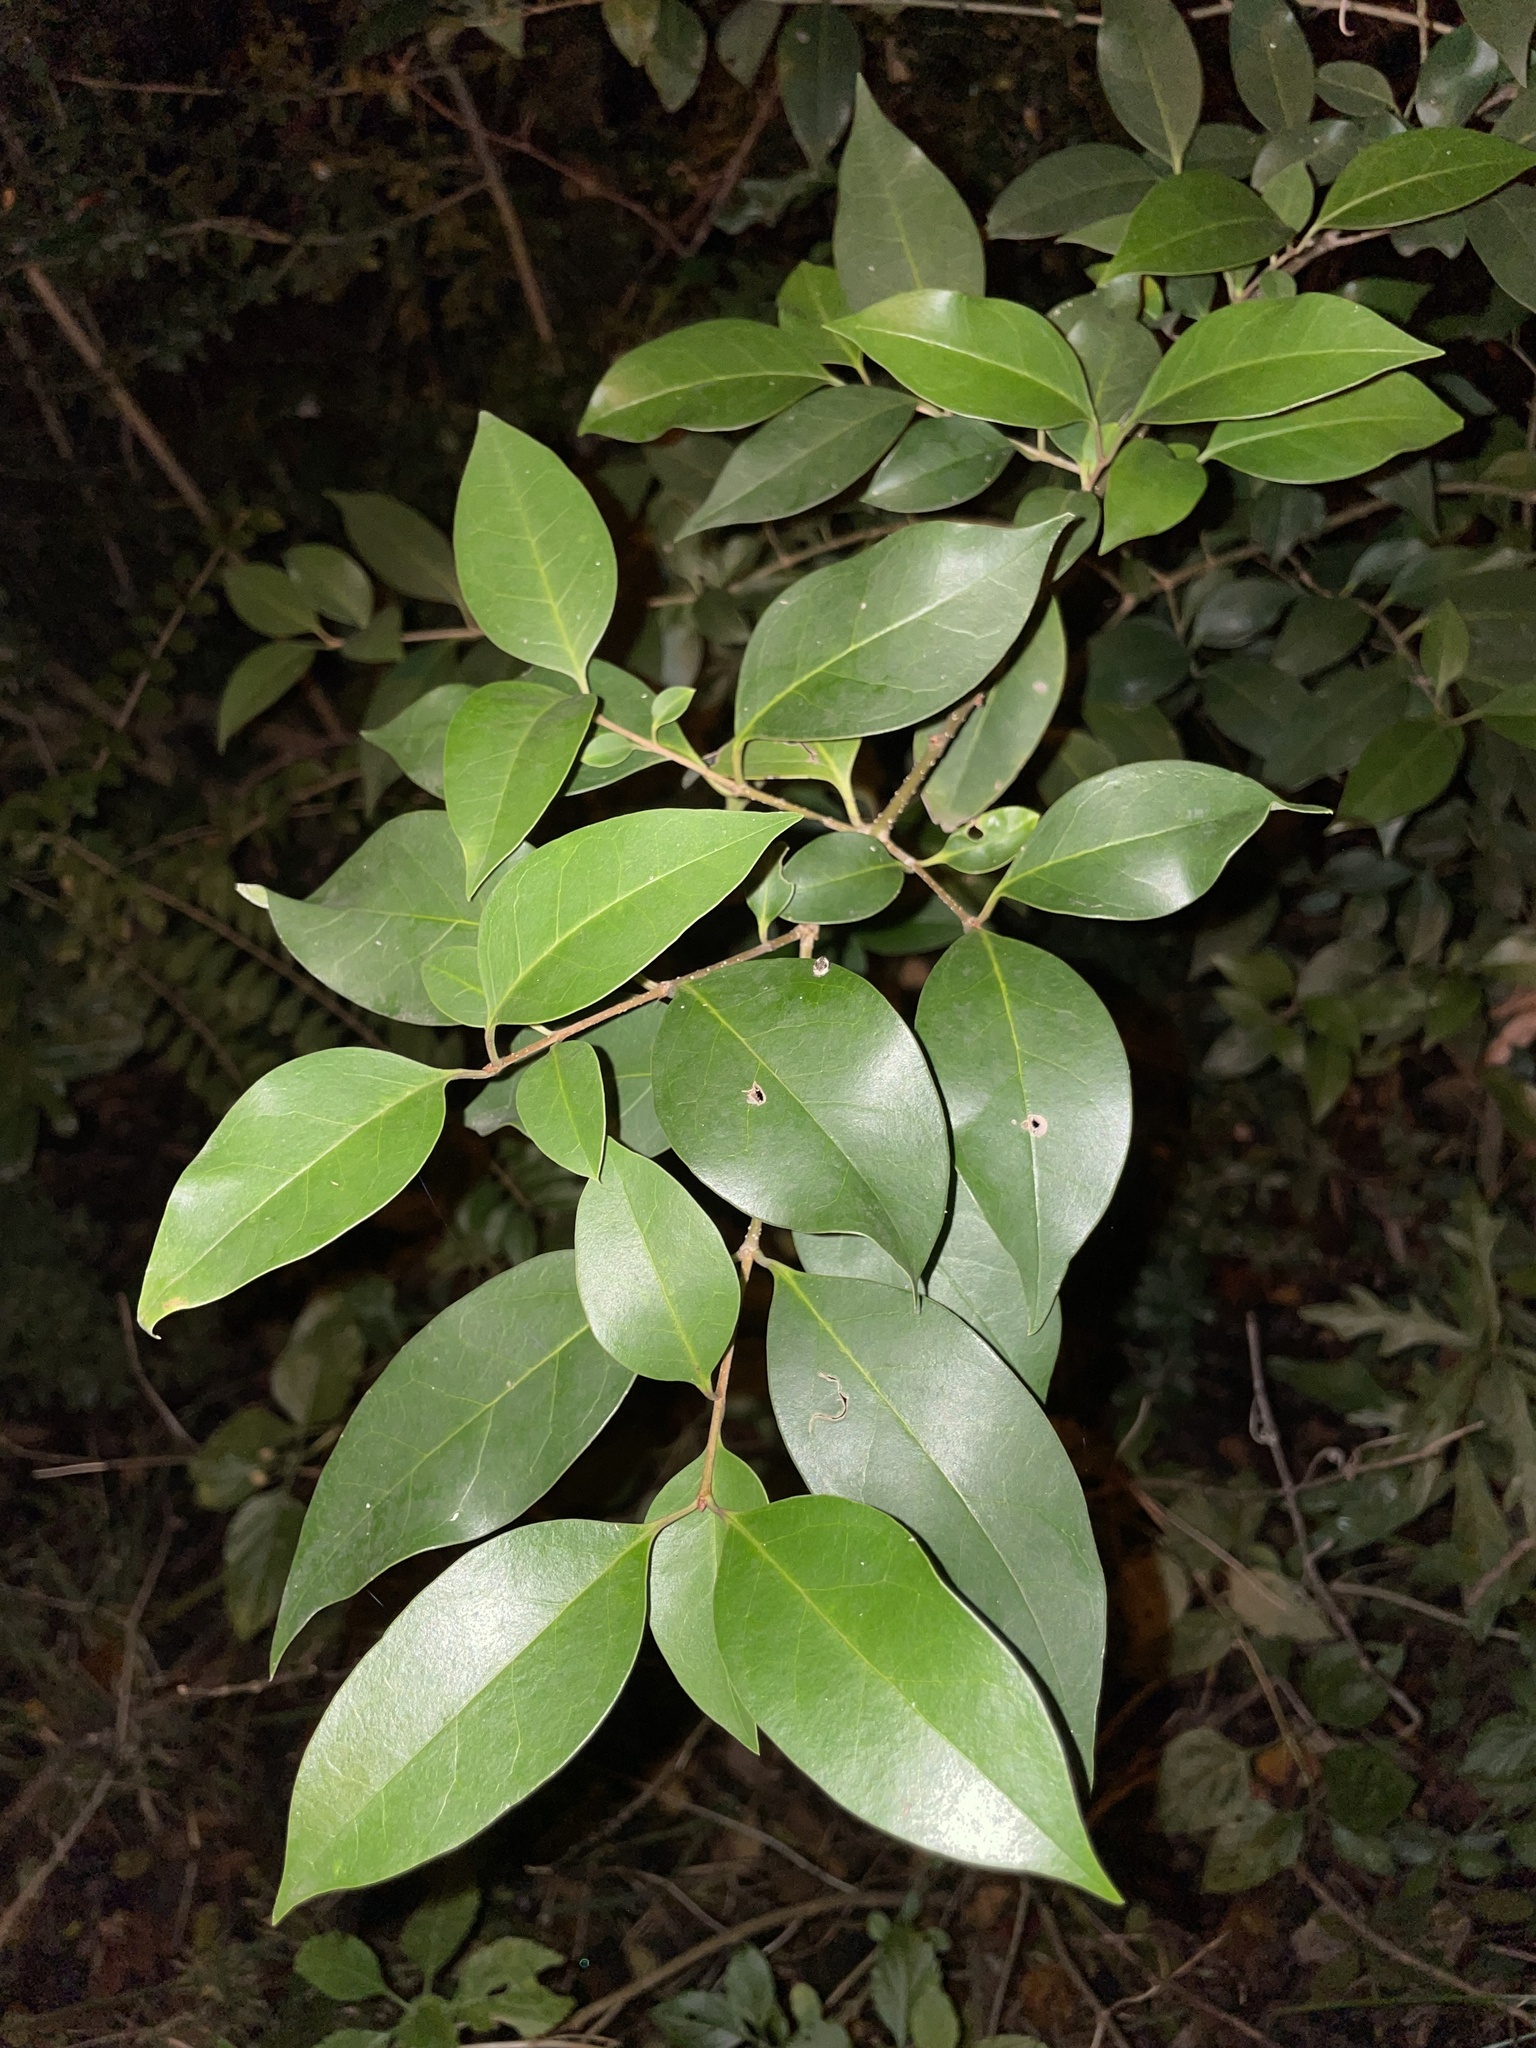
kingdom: Plantae
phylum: Tracheophyta
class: Magnoliopsida
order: Lamiales
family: Oleaceae
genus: Ligustrum
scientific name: Ligustrum lucidum
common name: Glossy privet
